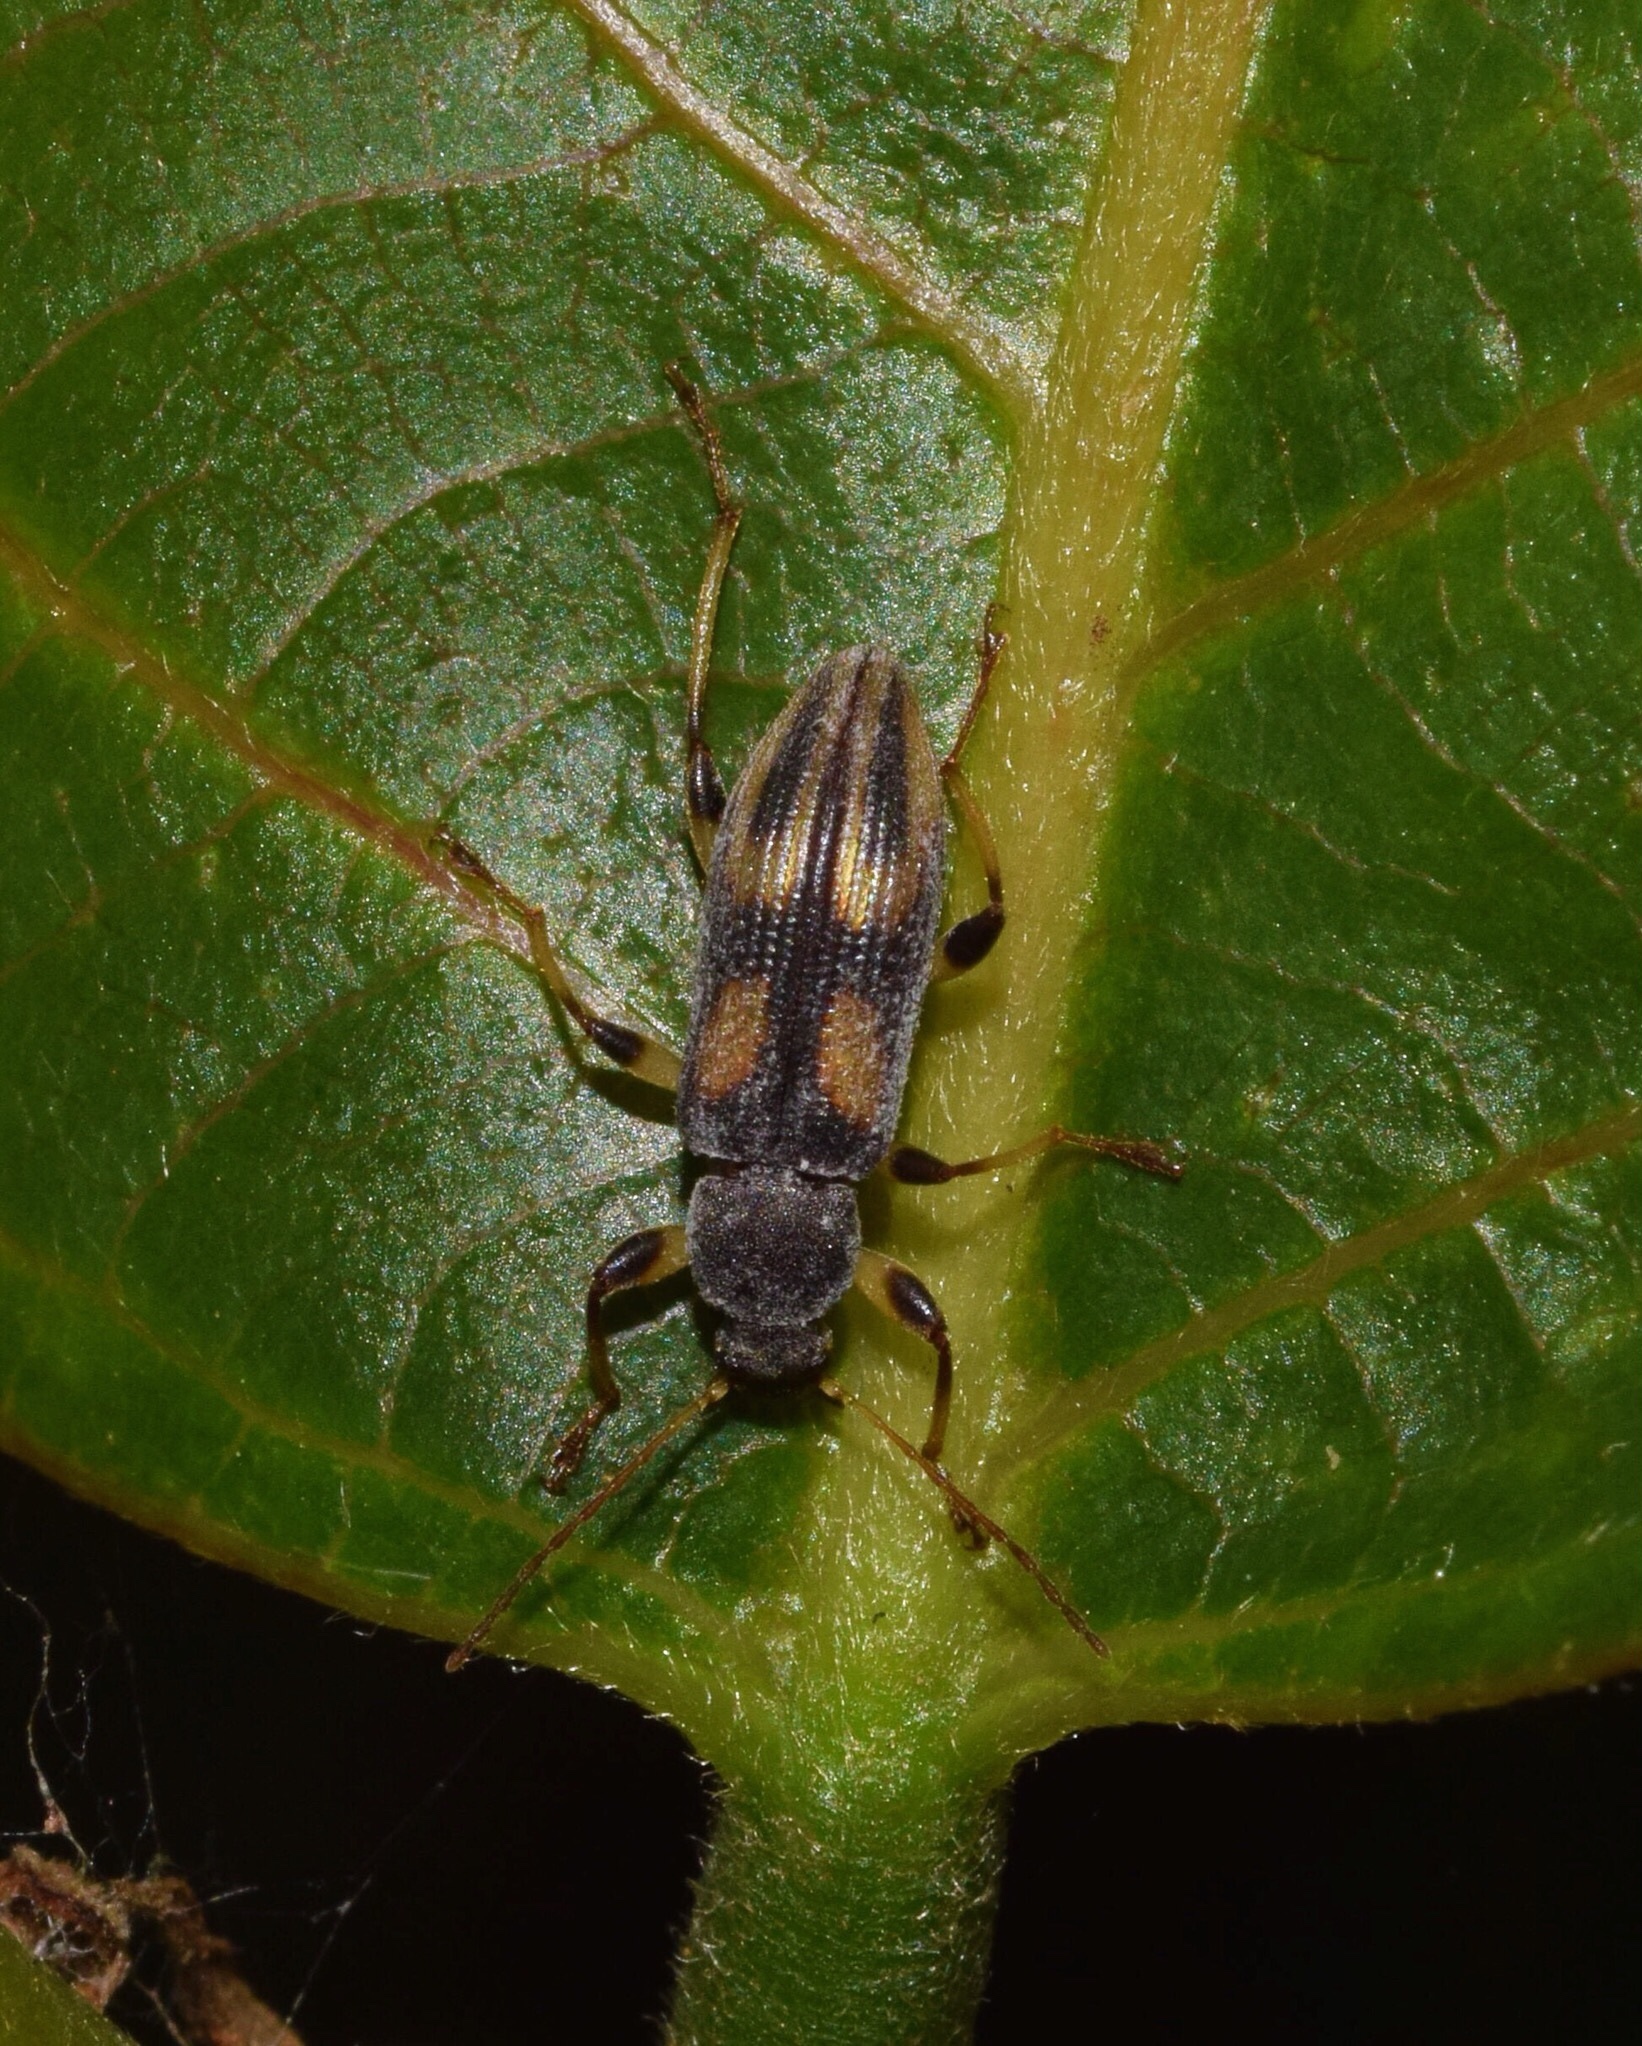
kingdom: Animalia
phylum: Arthropoda
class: Insecta
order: Coleoptera
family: Tenebrionidae
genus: Allecula
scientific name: Allecula
